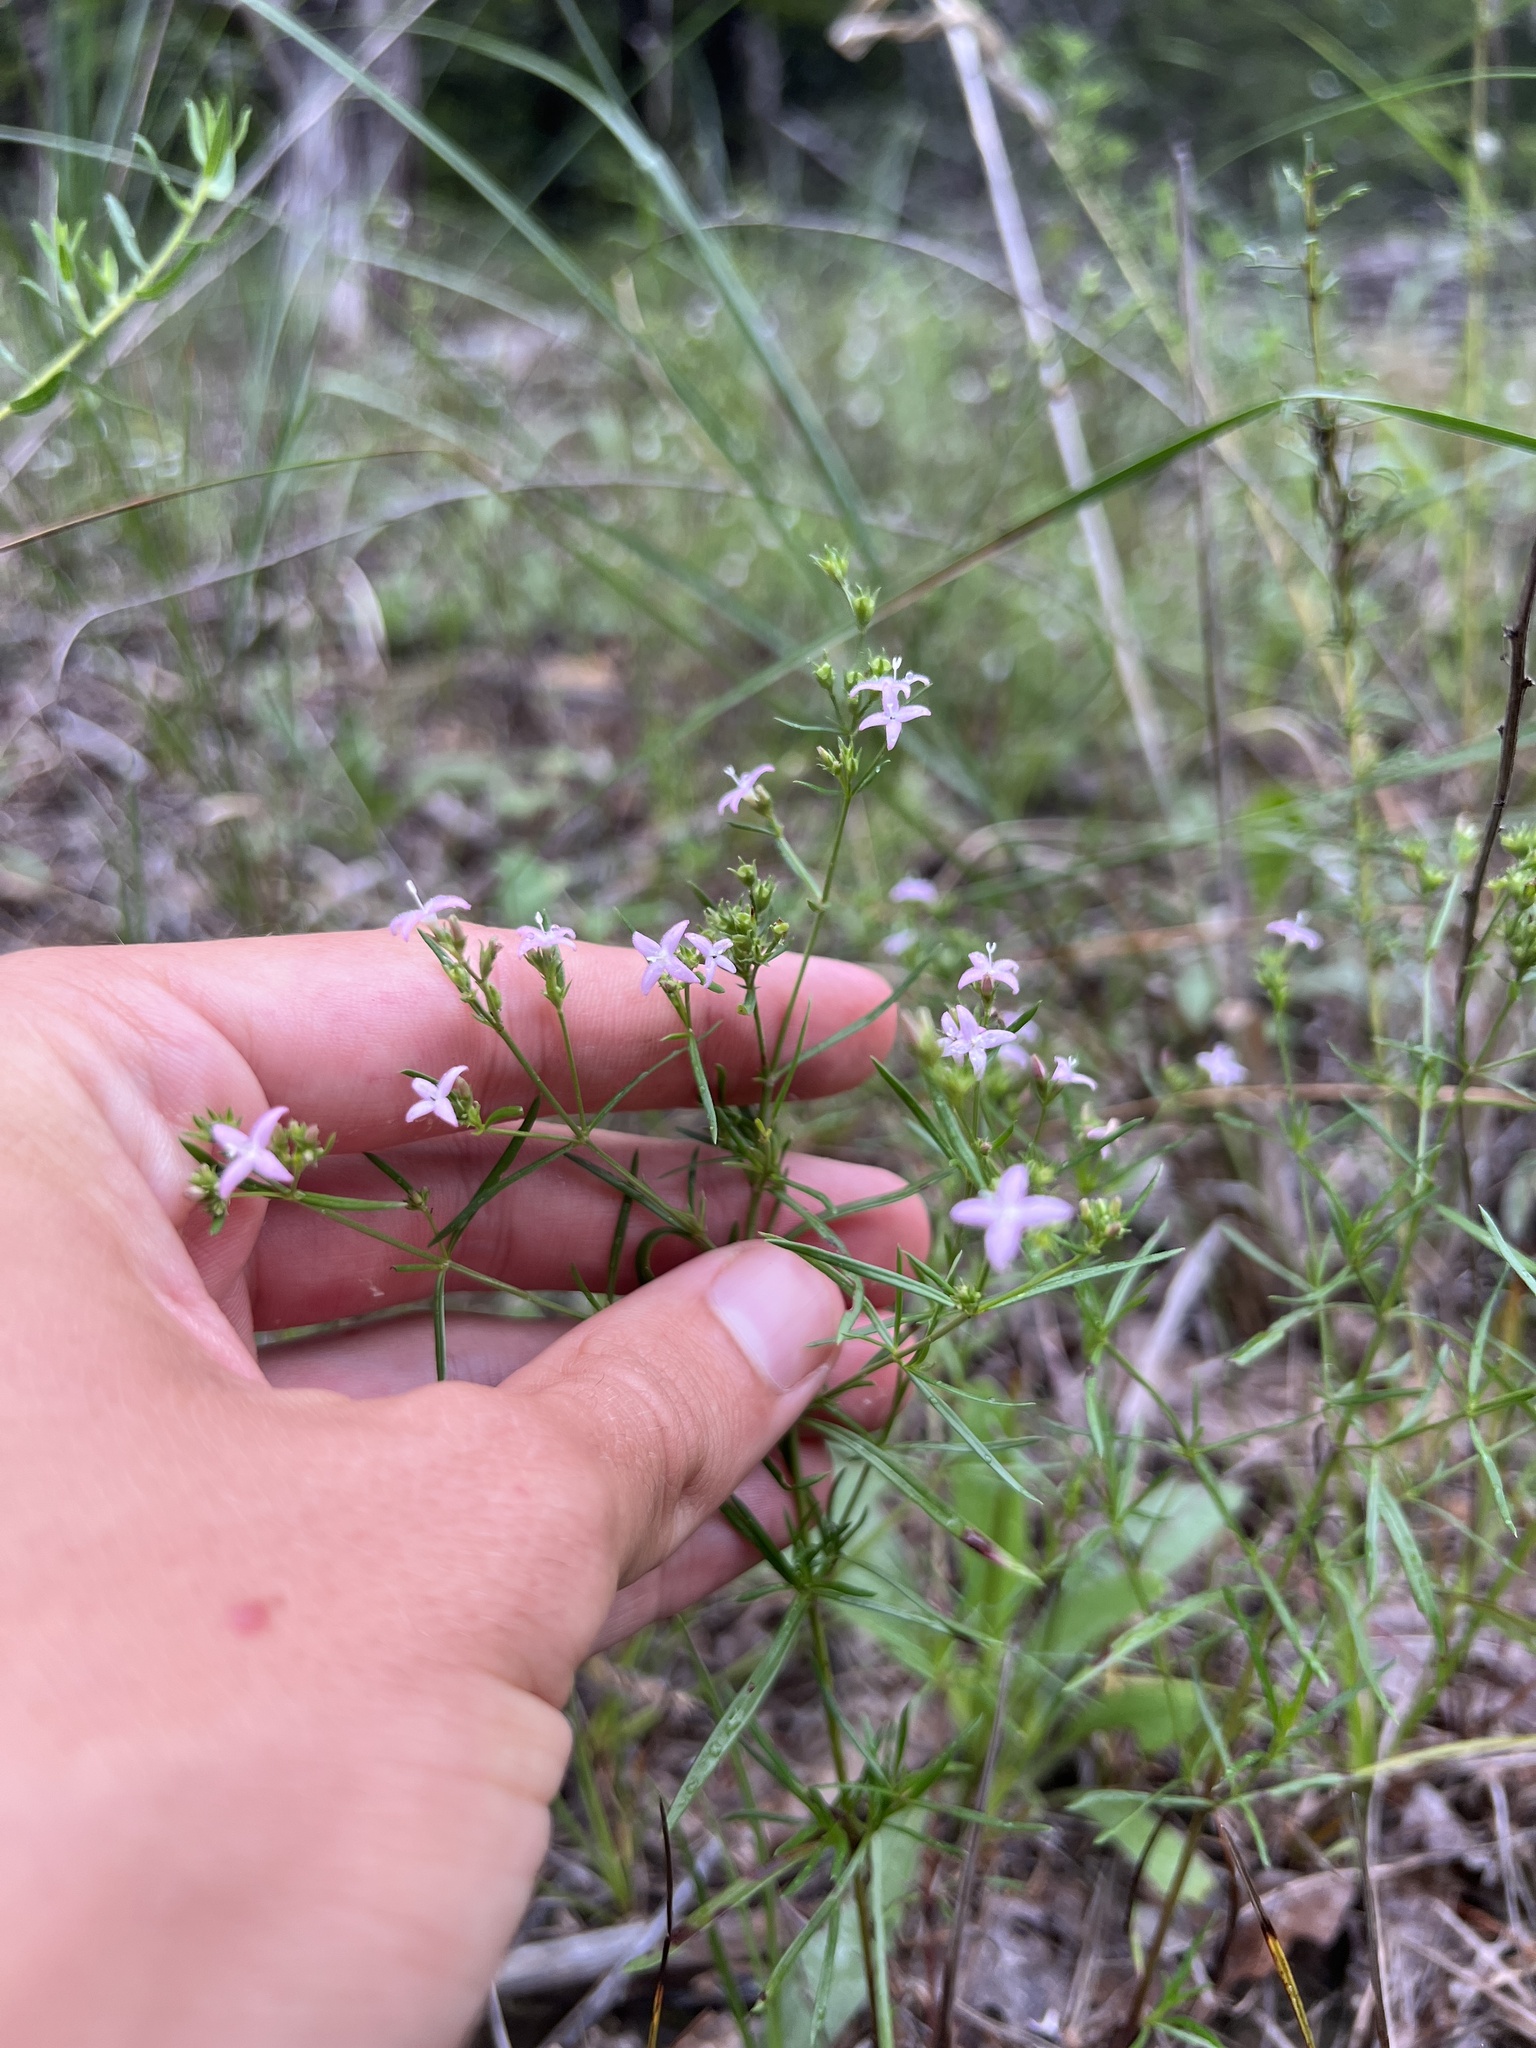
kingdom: Plantae
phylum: Tracheophyta
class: Magnoliopsida
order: Gentianales
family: Rubiaceae
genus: Stenaria
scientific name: Stenaria nigricans
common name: Diamondflowers
